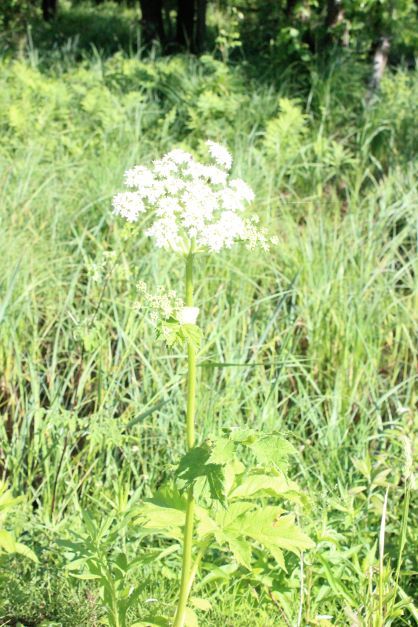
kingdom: Plantae
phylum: Tracheophyta
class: Magnoliopsida
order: Apiales
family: Apiaceae
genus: Heracleum
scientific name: Heracleum maximum
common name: American cow parsnip
